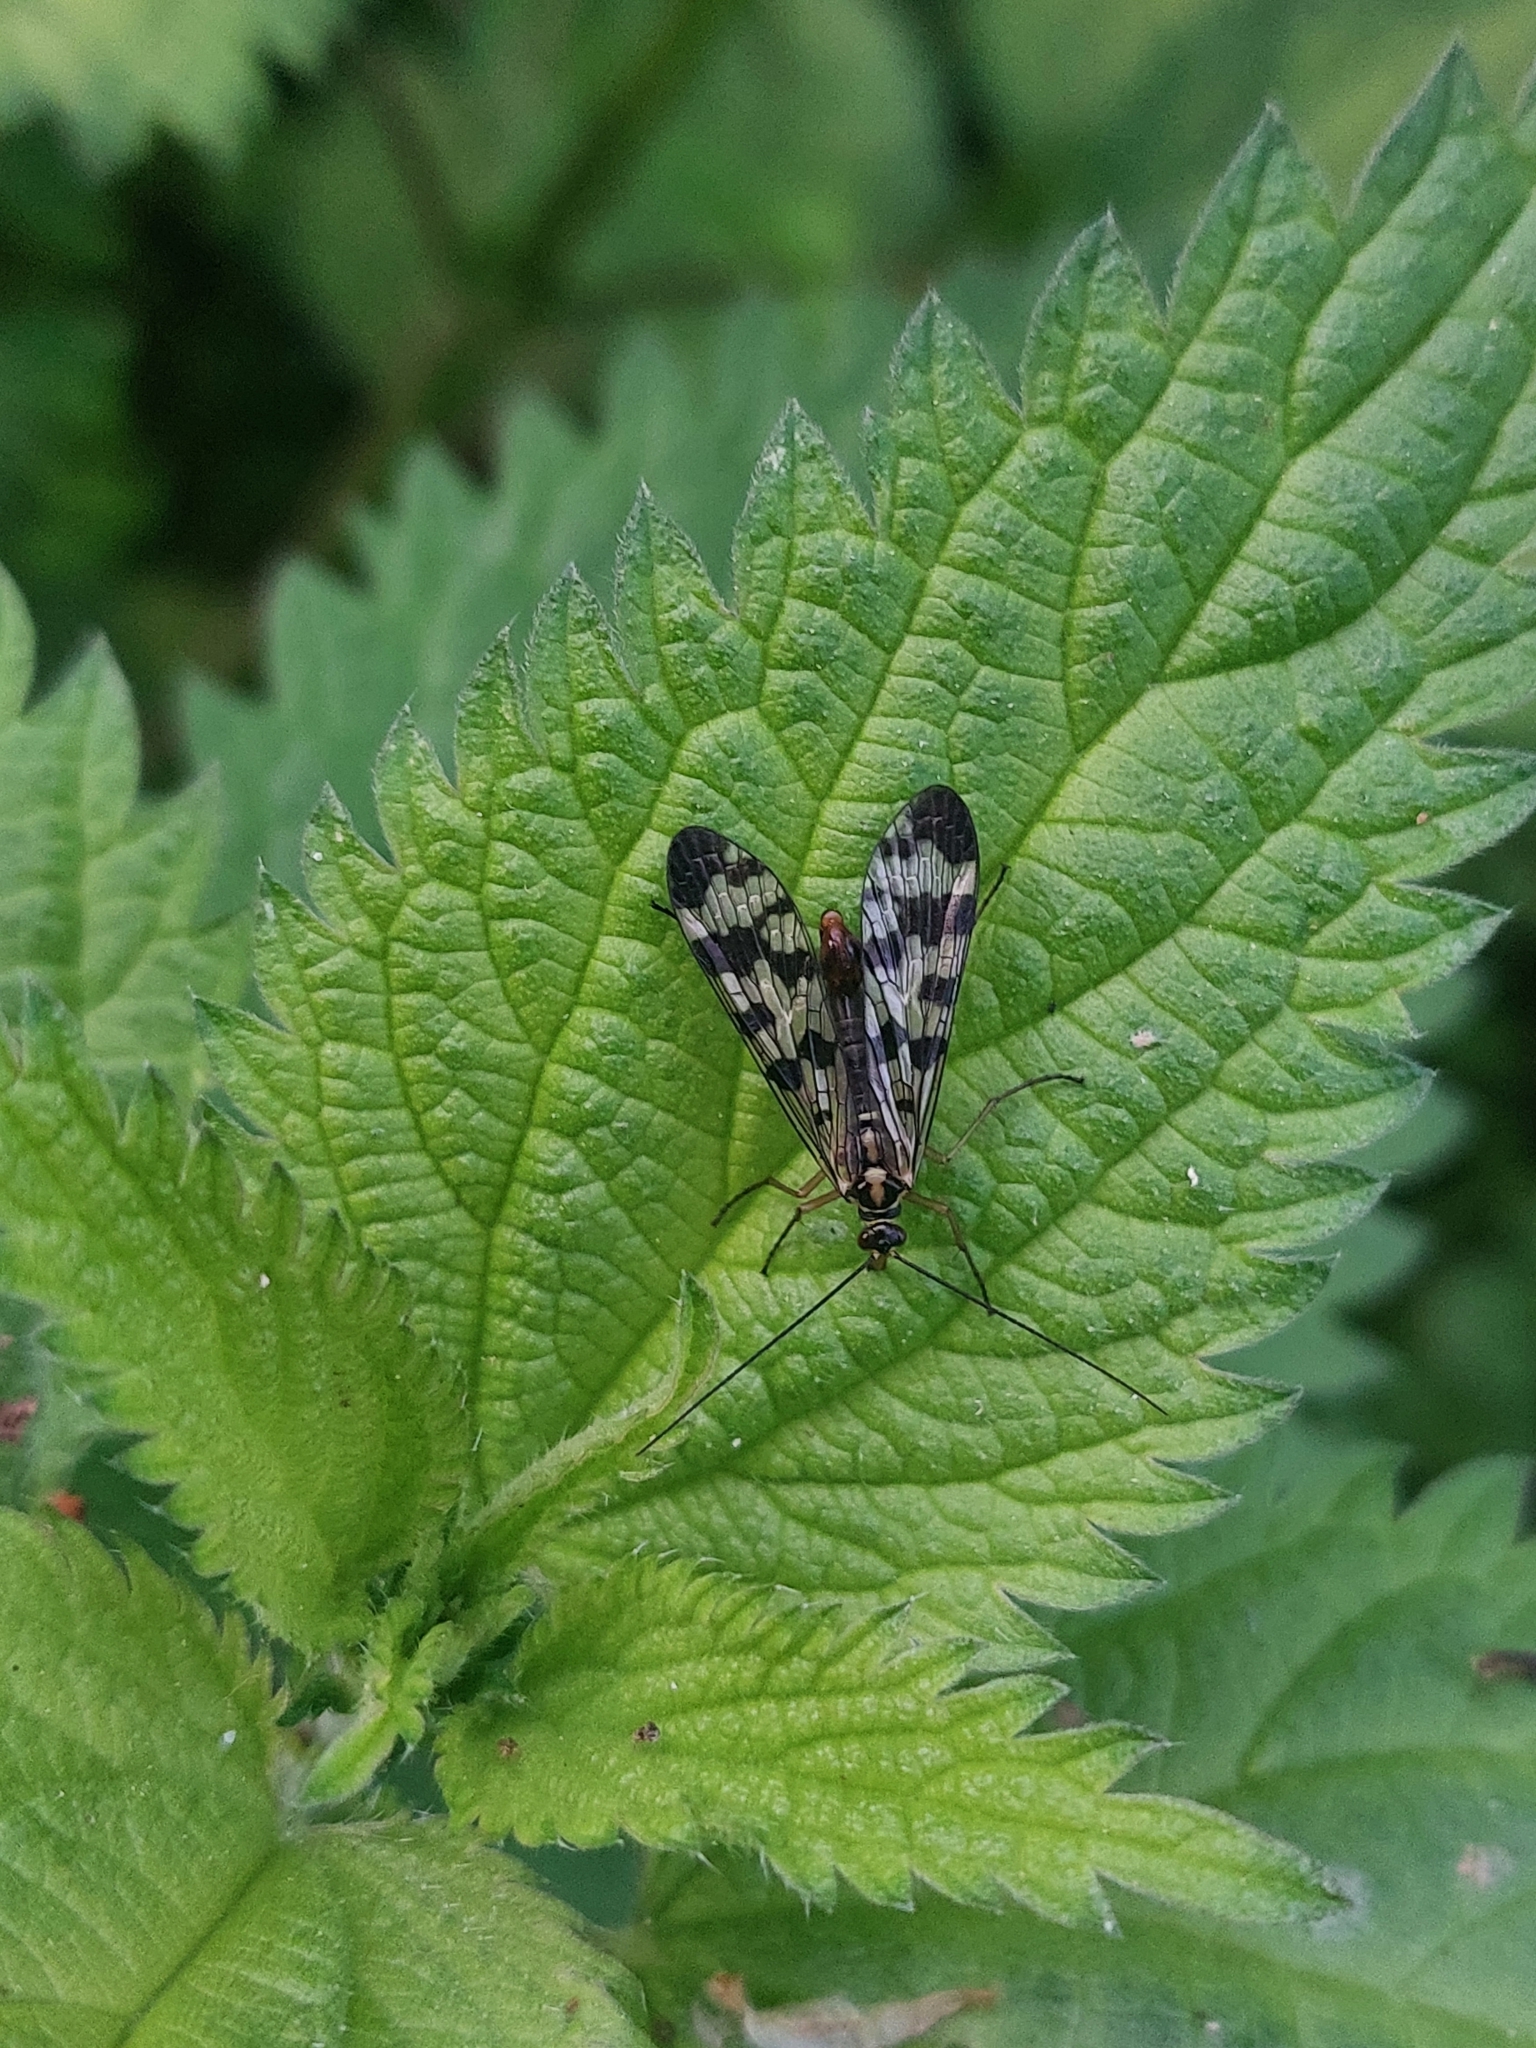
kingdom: Animalia
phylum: Arthropoda
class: Insecta
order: Mecoptera
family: Panorpidae
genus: Panorpa
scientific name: Panorpa communis
